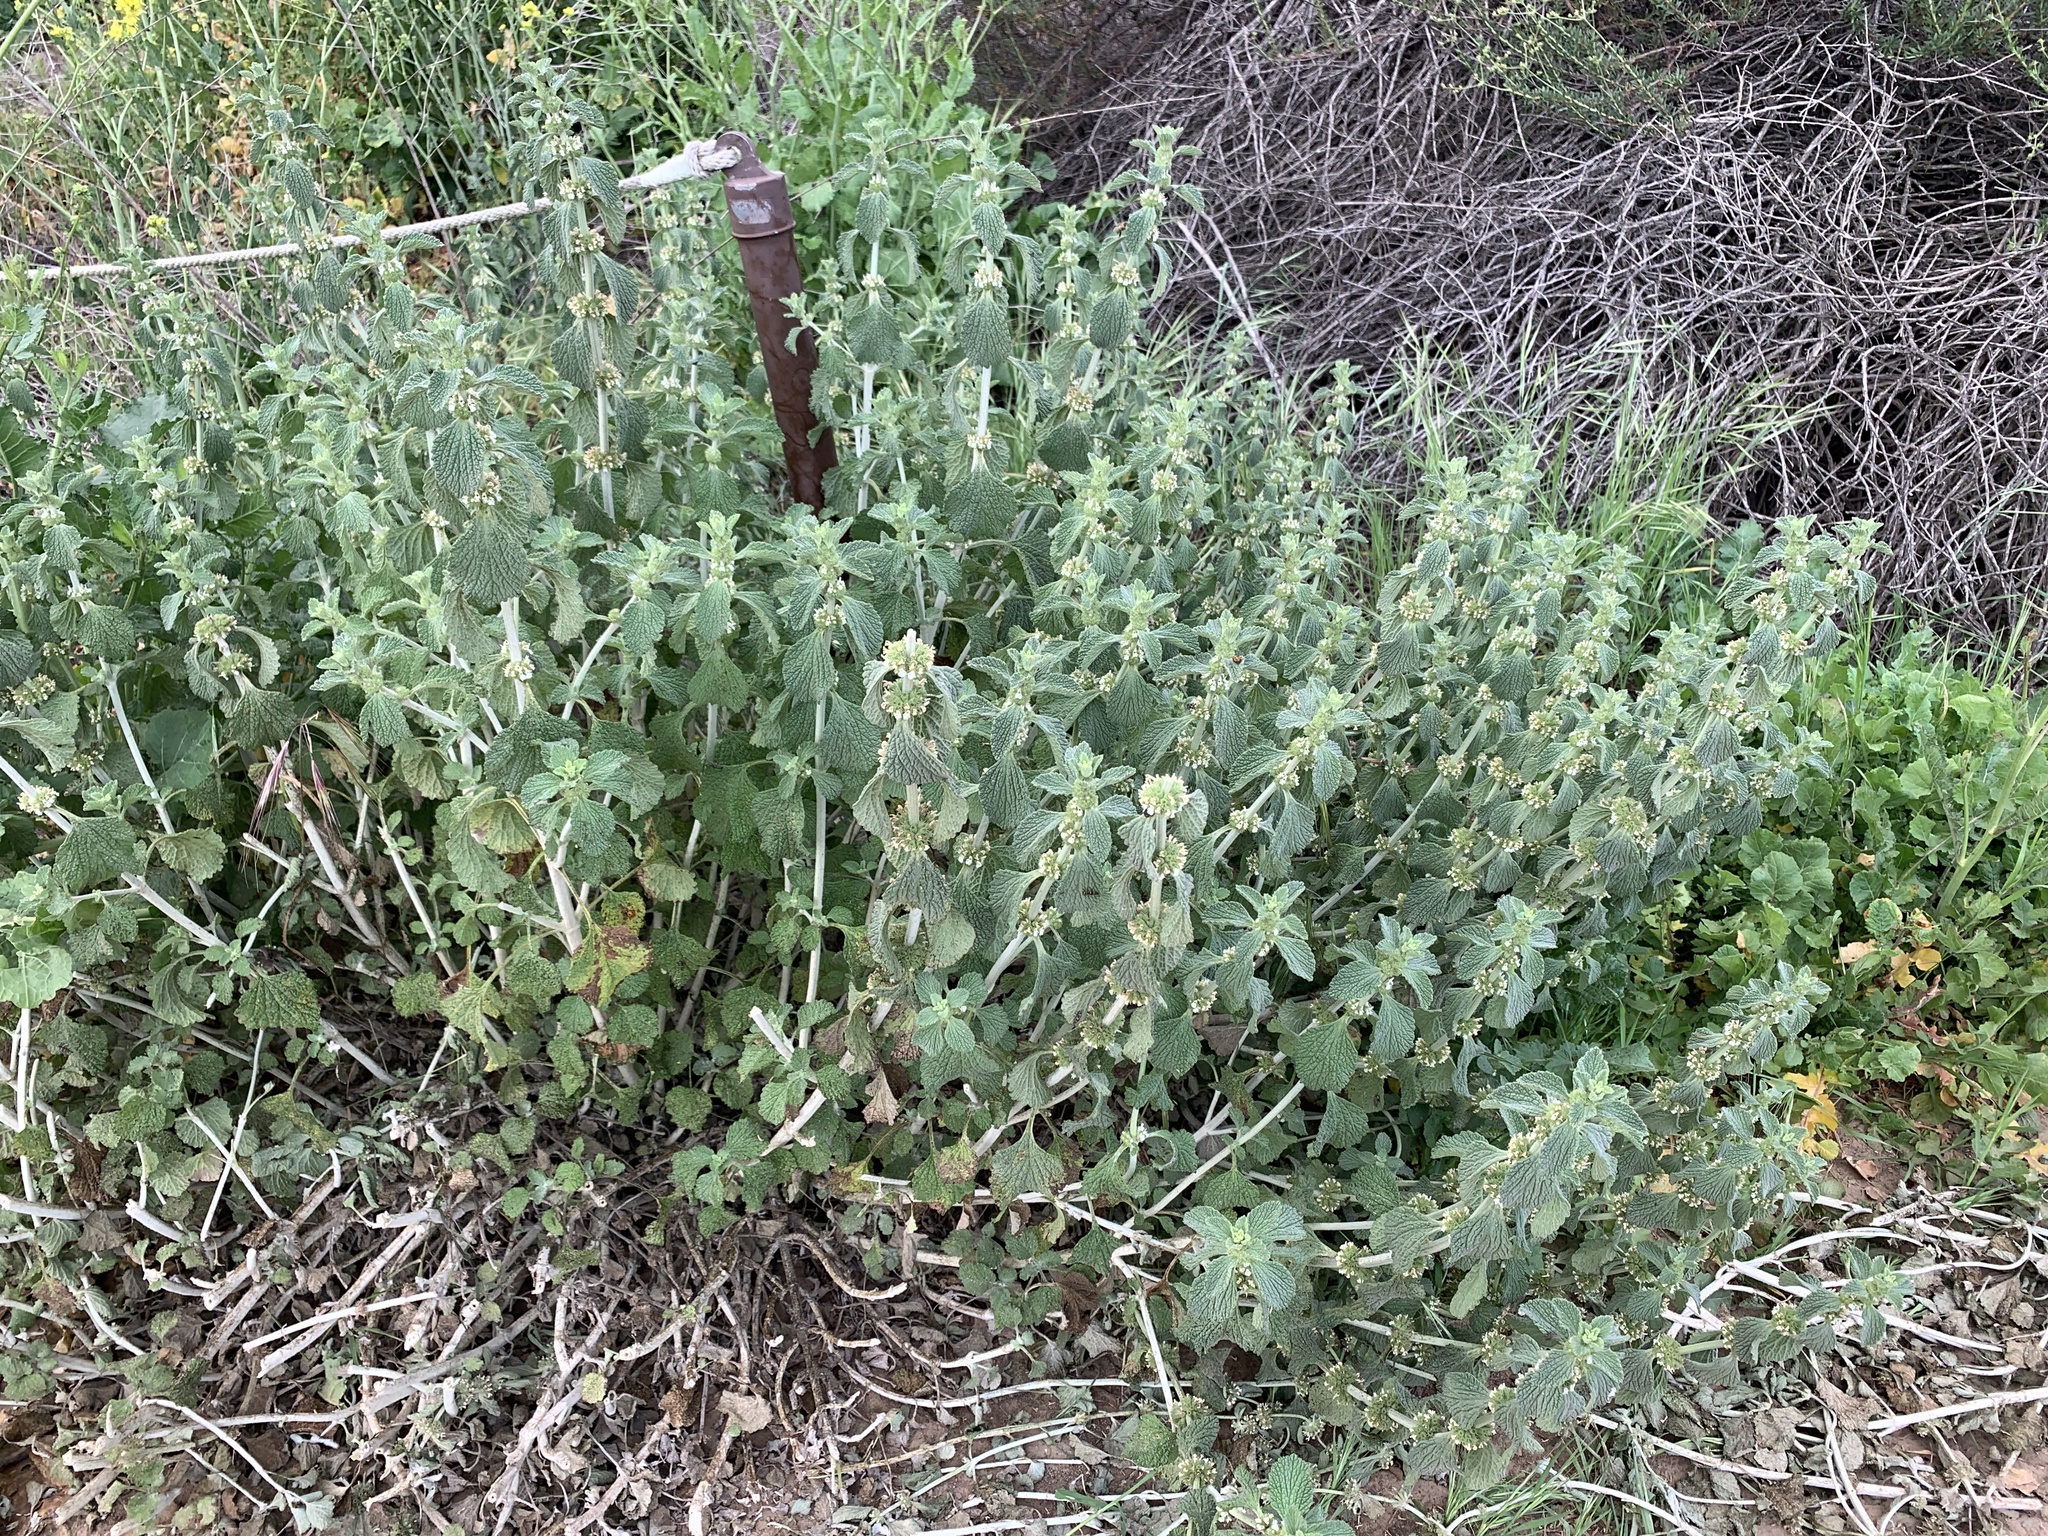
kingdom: Plantae
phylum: Tracheophyta
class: Magnoliopsida
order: Lamiales
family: Lamiaceae
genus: Marrubium
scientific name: Marrubium vulgare
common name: Horehound
